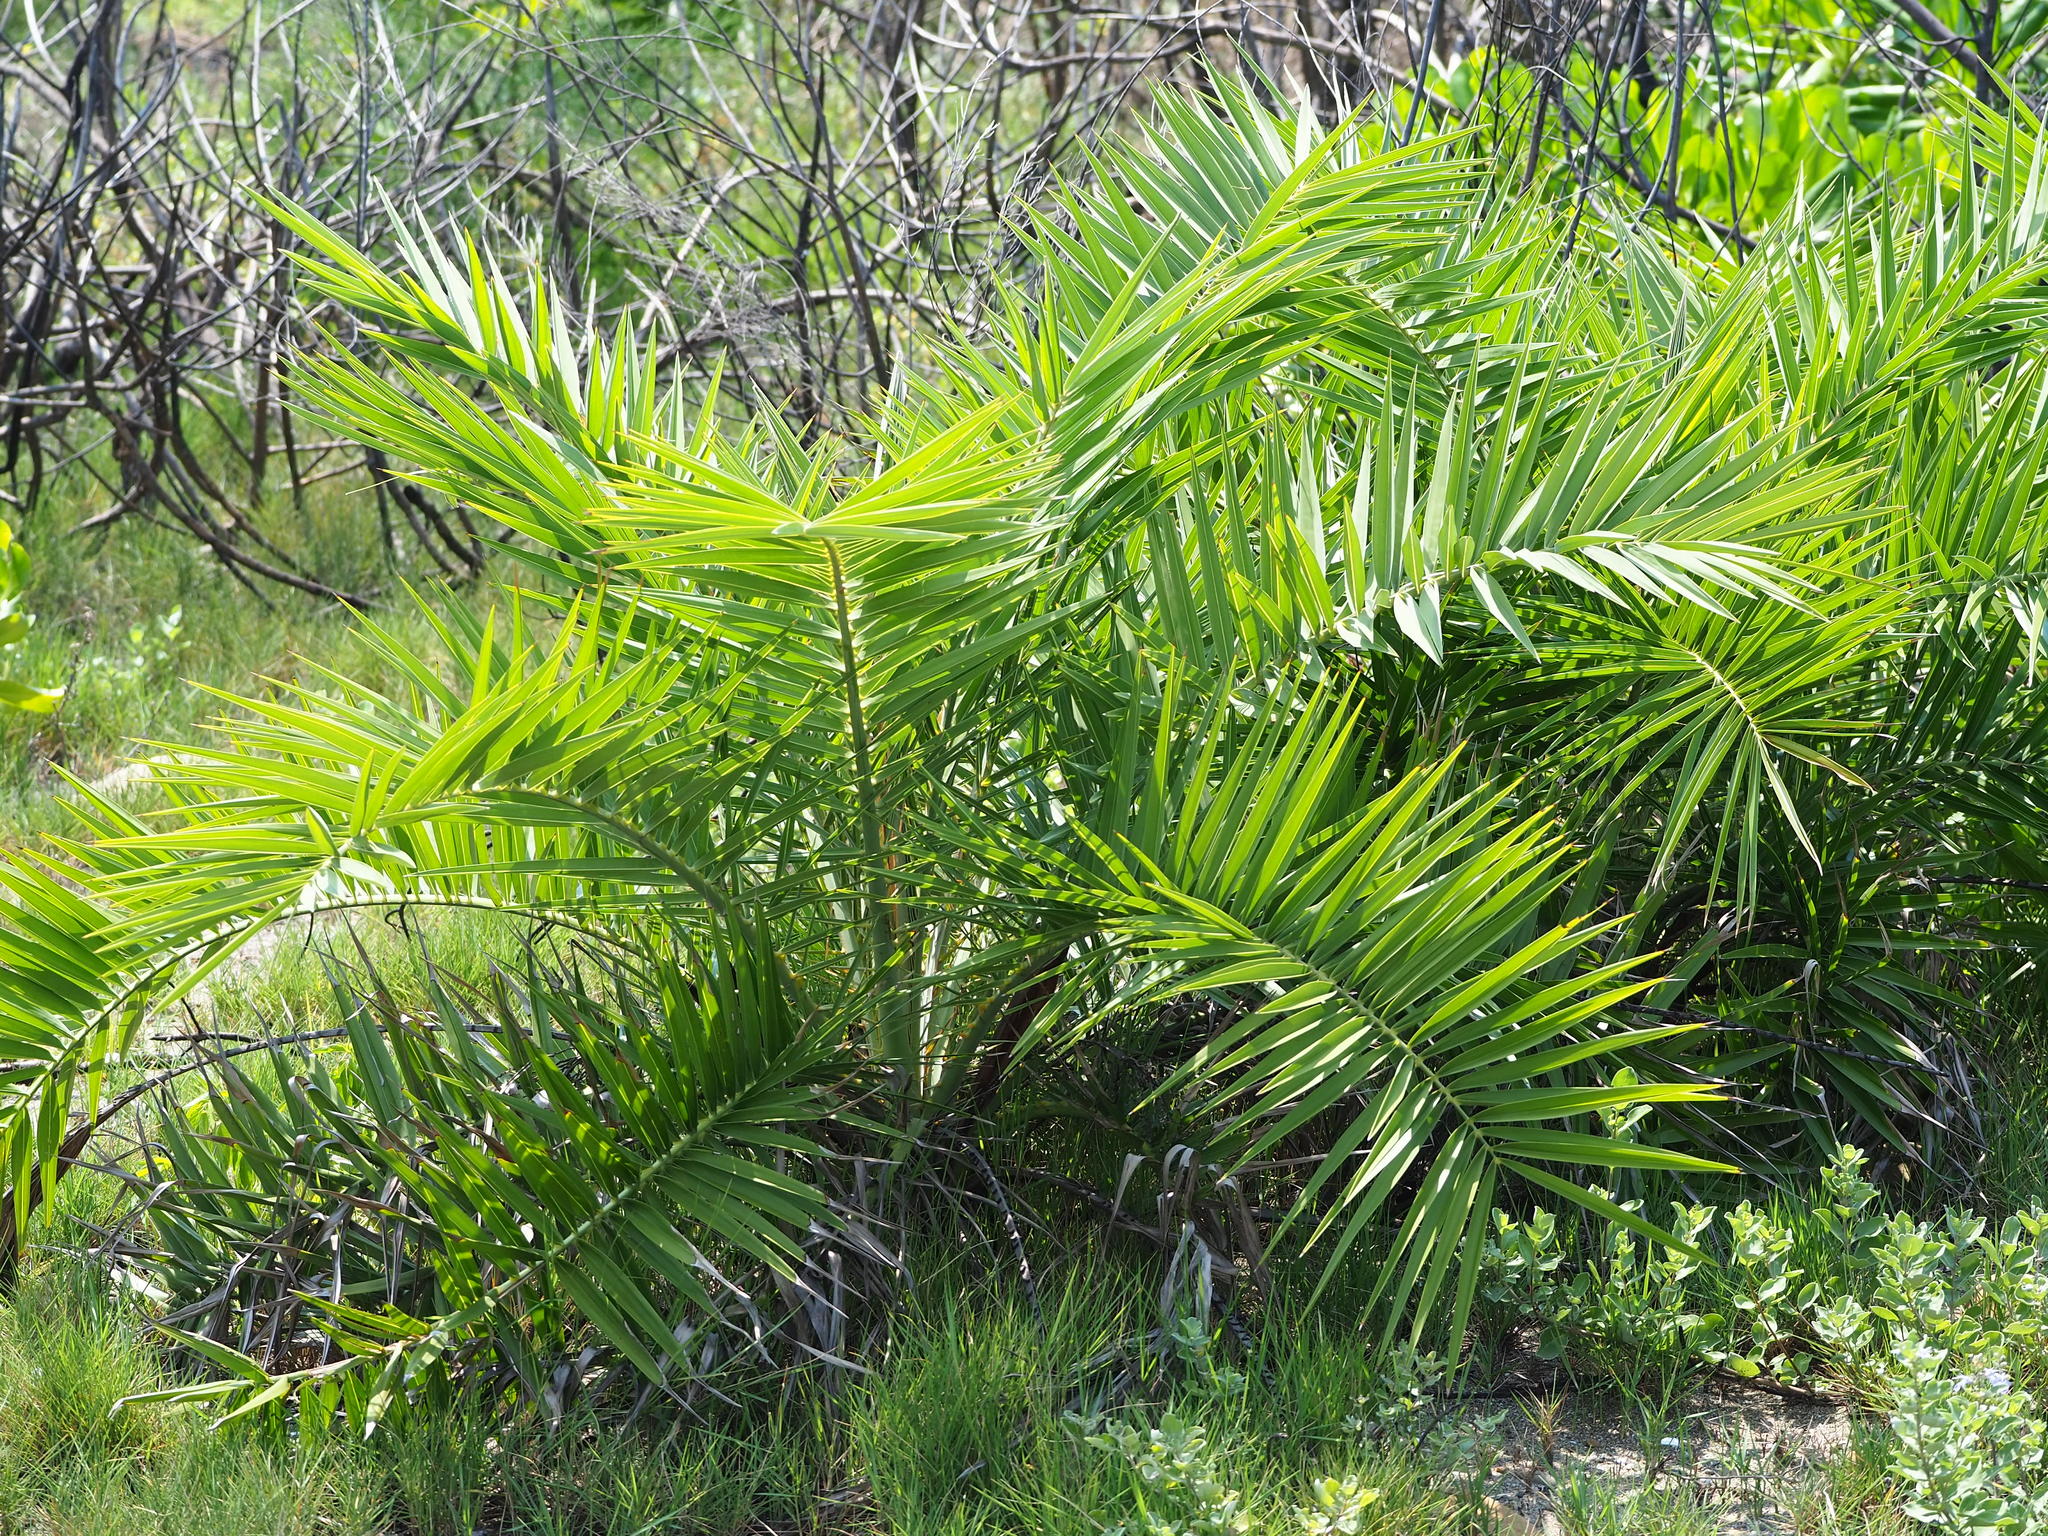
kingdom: Plantae
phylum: Tracheophyta
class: Liliopsida
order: Arecales
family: Arecaceae
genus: Phoenix
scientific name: Phoenix loureiroi
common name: Loureiro's palm
